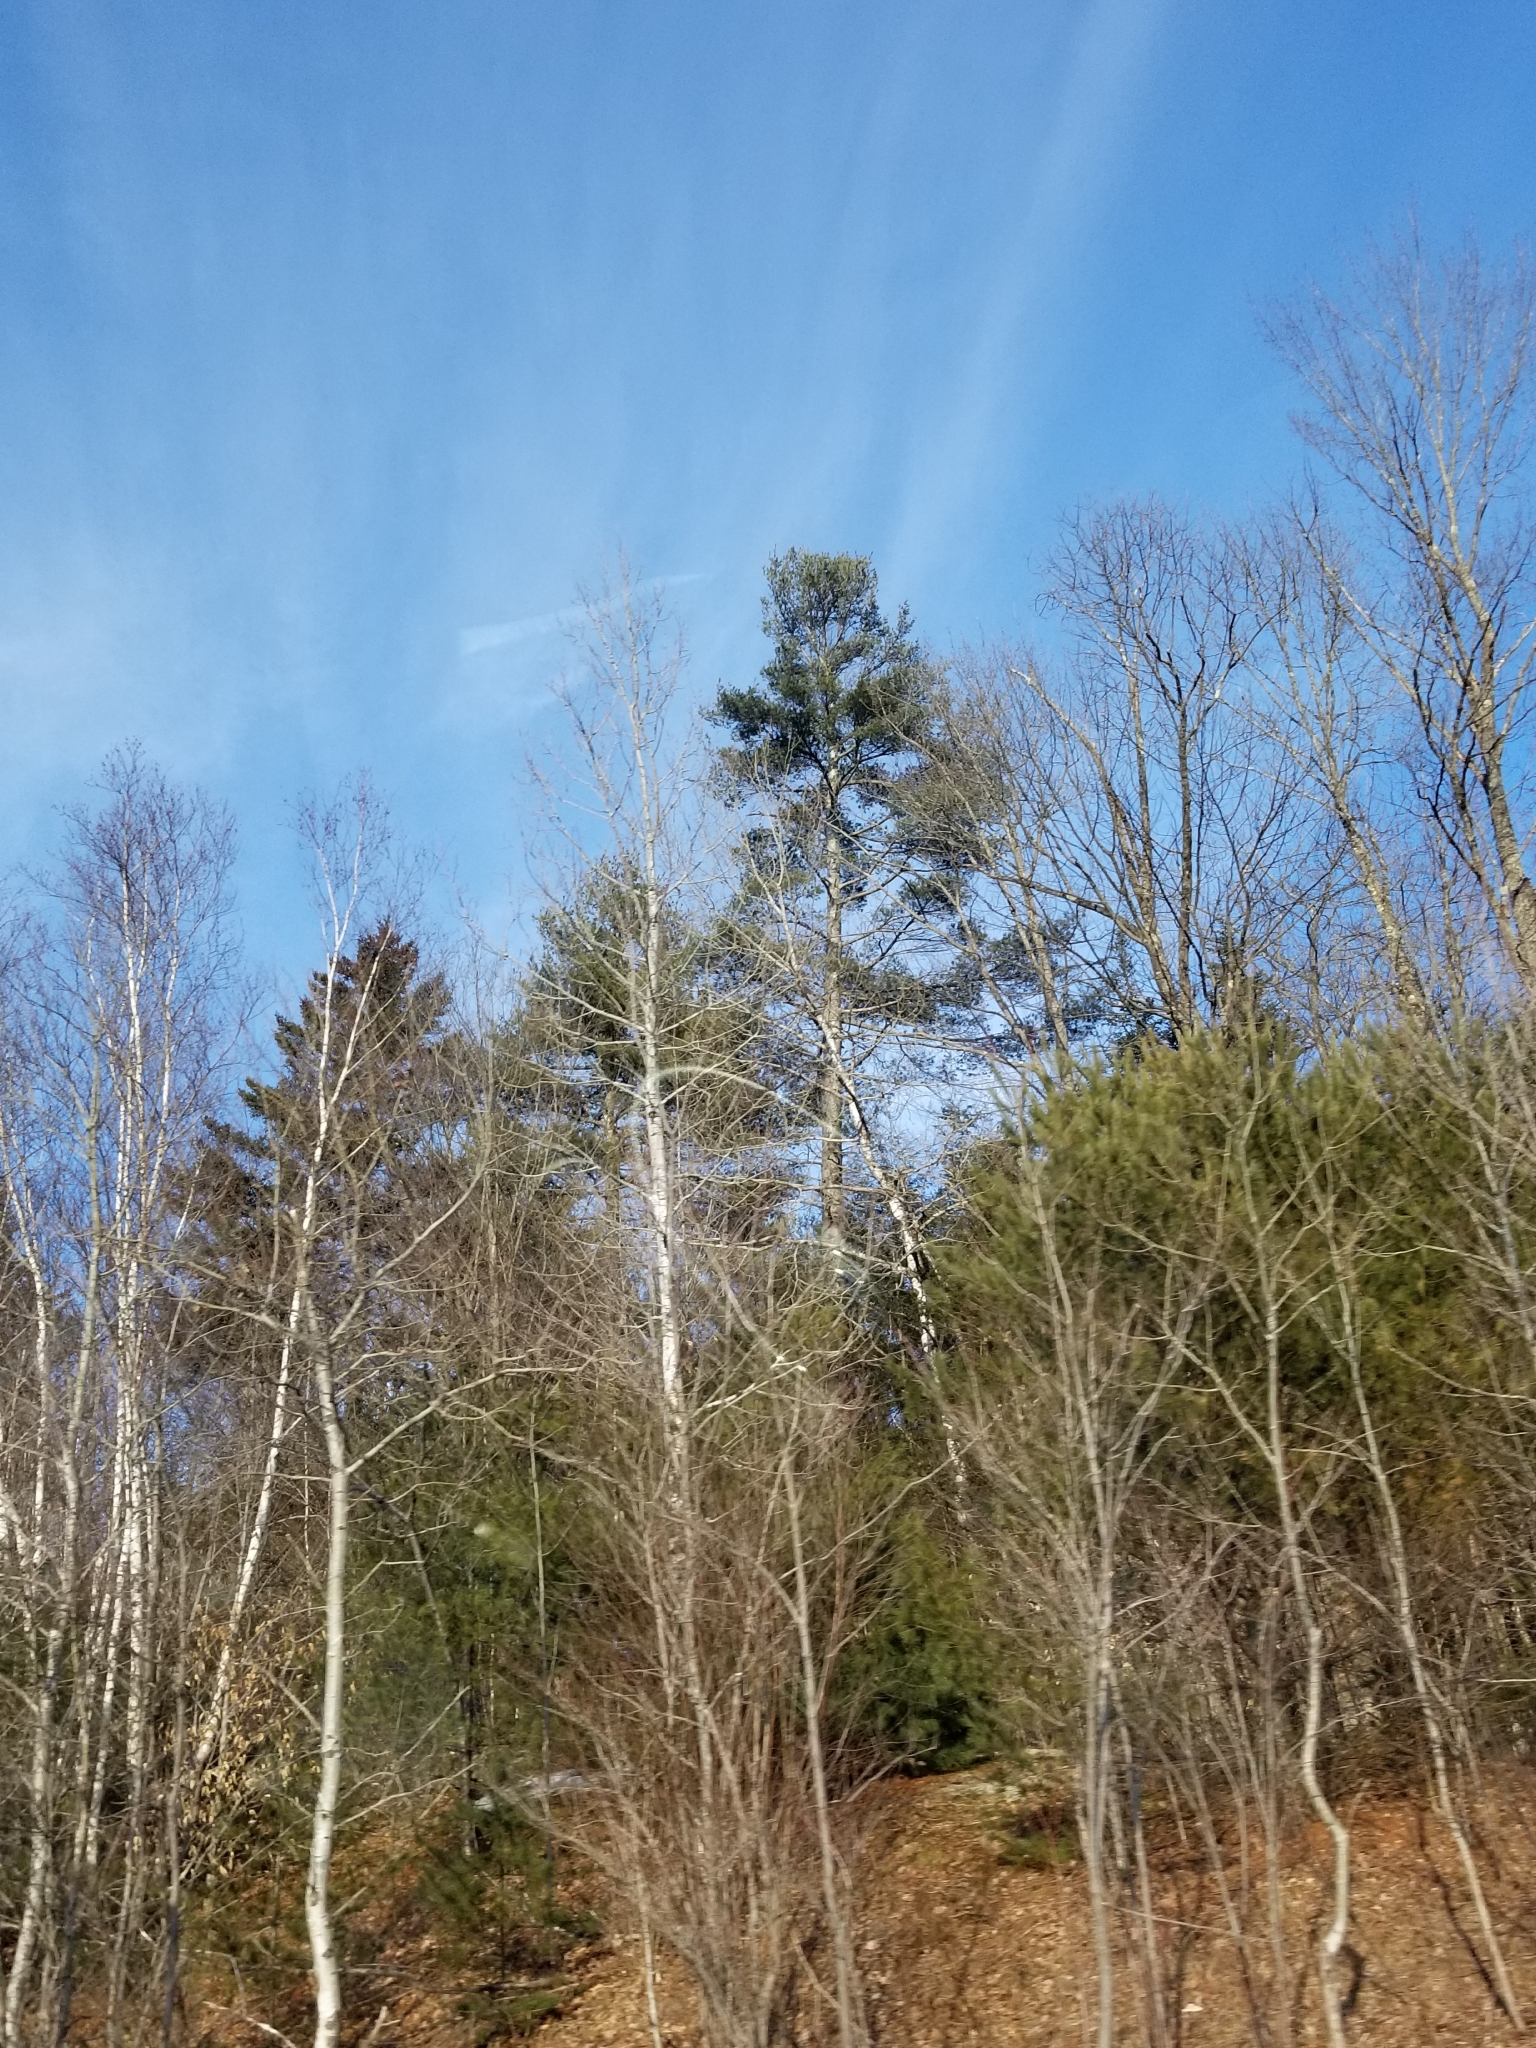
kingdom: Plantae
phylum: Tracheophyta
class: Pinopsida
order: Pinales
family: Pinaceae
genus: Pinus
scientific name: Pinus strobus
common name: Weymouth pine
